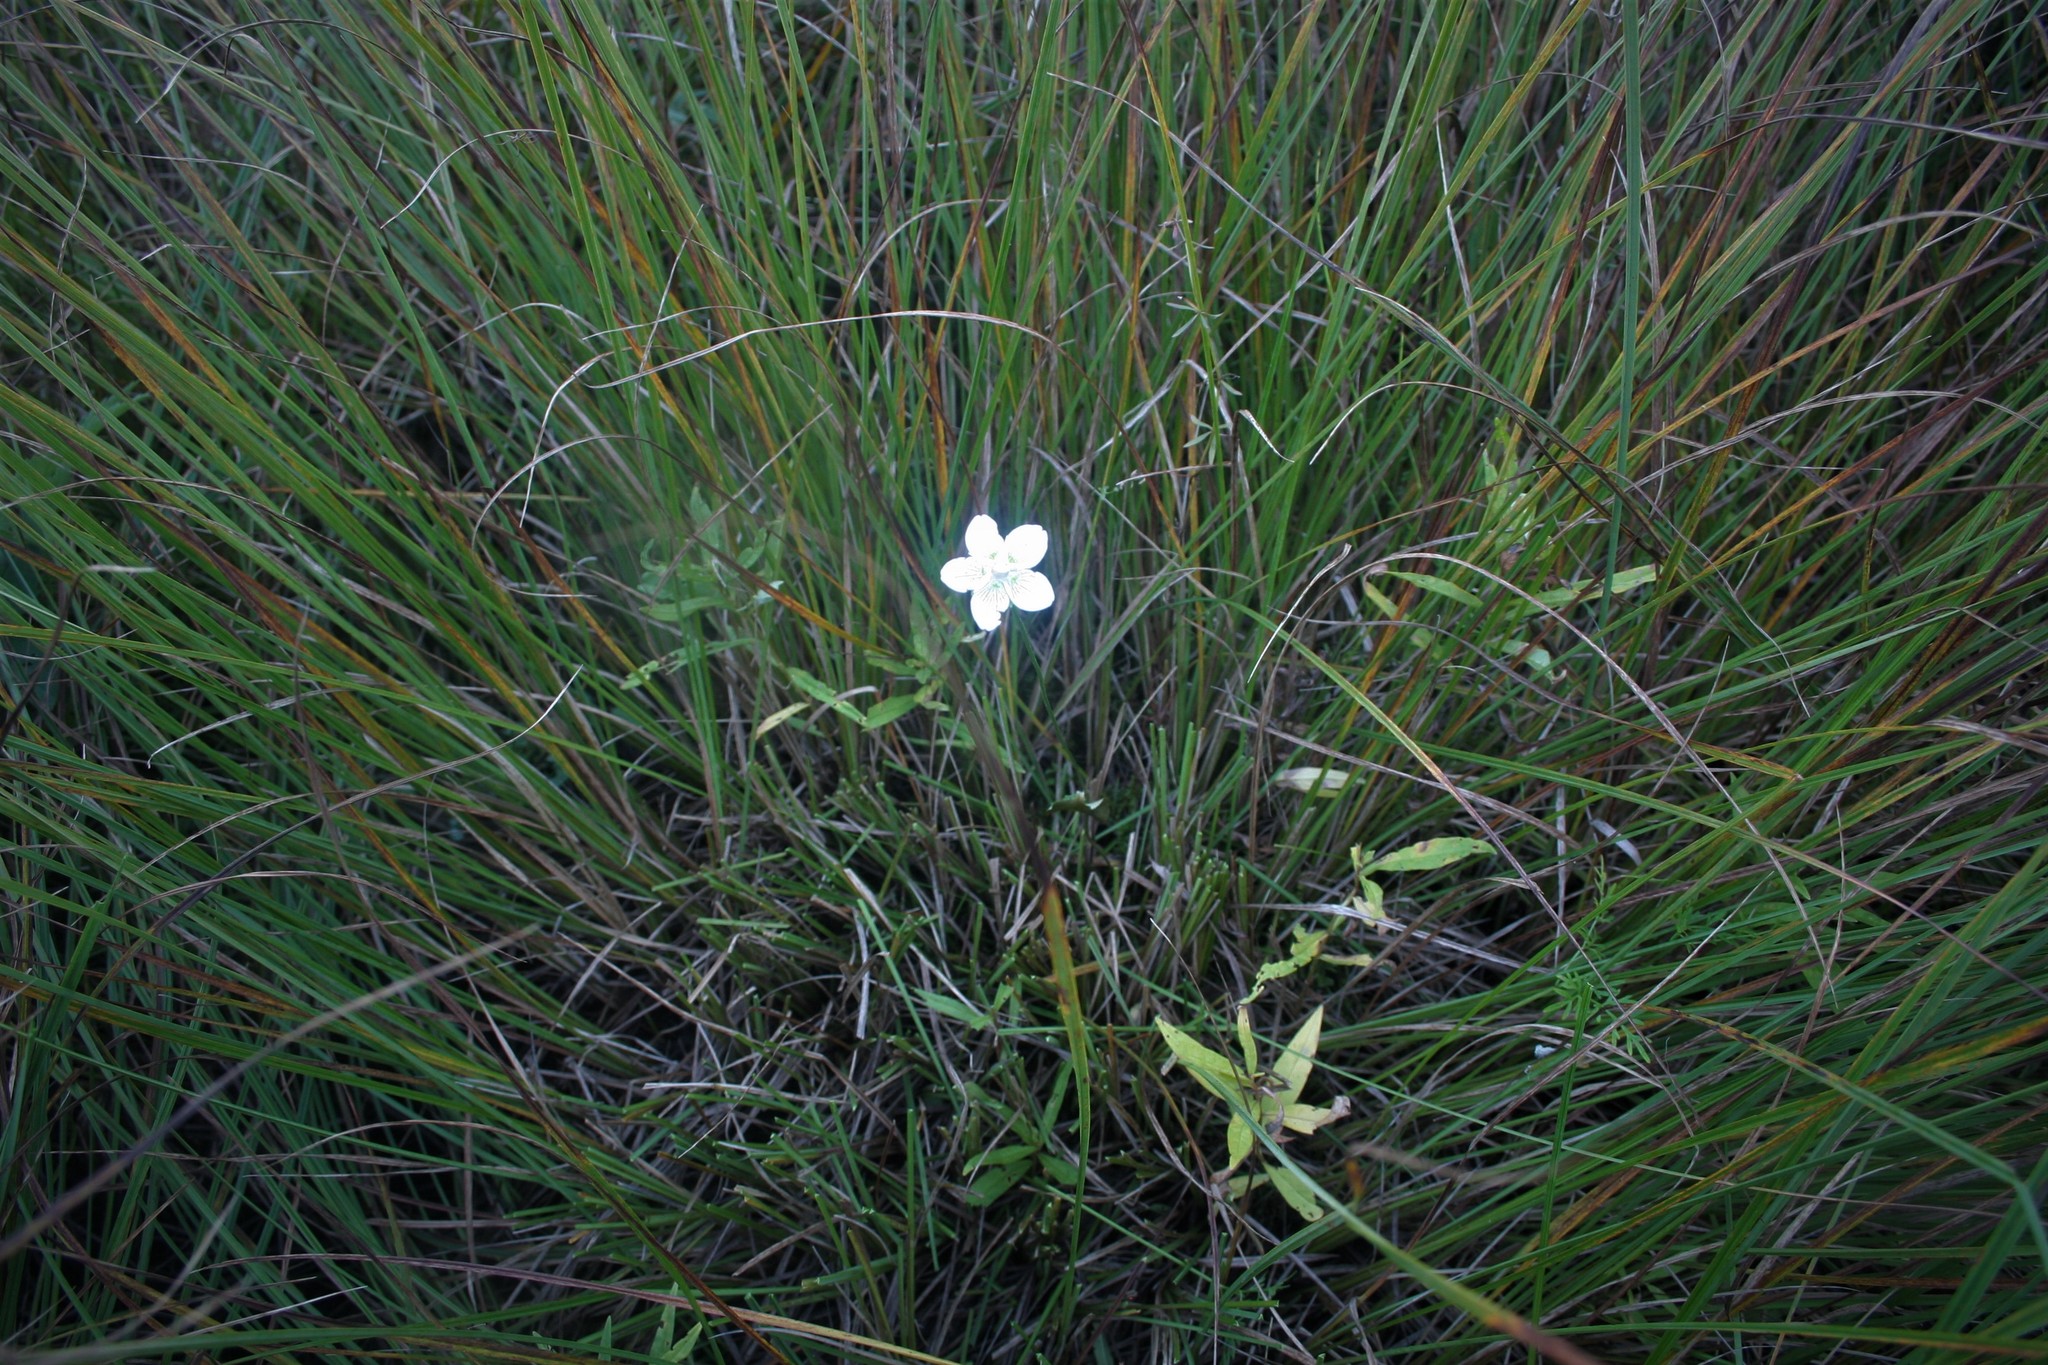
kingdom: Plantae
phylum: Tracheophyta
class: Magnoliopsida
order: Celastrales
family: Parnassiaceae
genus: Parnassia
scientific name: Parnassia palustris
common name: Grass-of-parnassus
